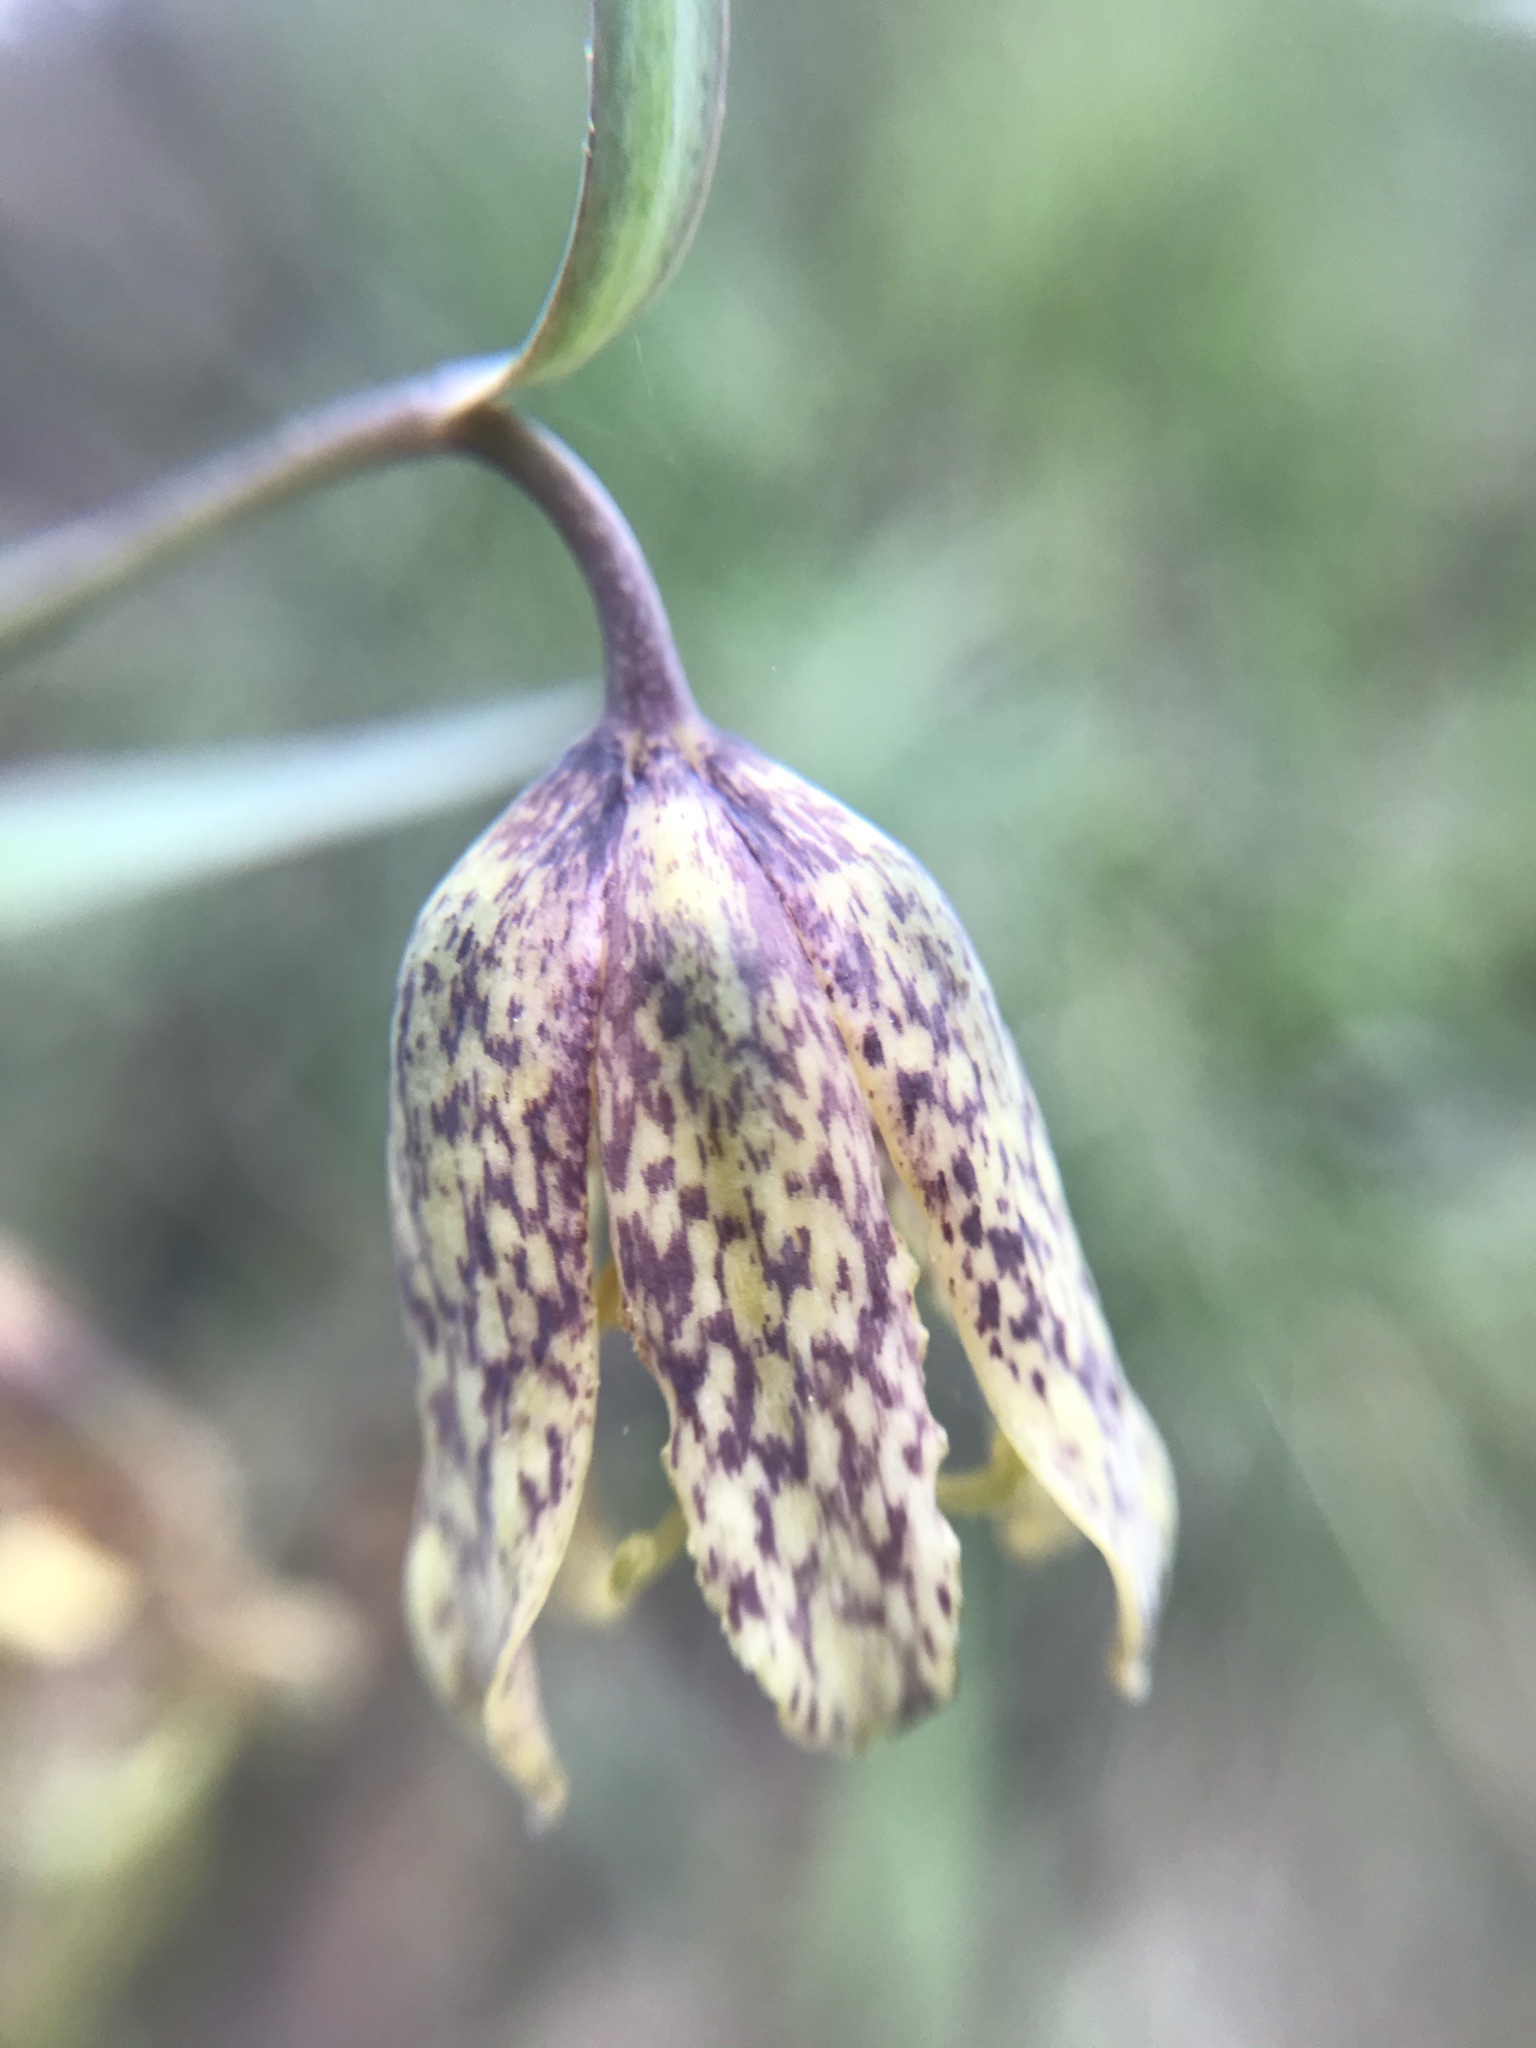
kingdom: Plantae
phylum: Tracheophyta
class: Liliopsida
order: Liliales
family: Liliaceae
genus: Fritillaria
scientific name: Fritillaria affinis
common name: Ojai fritillary
